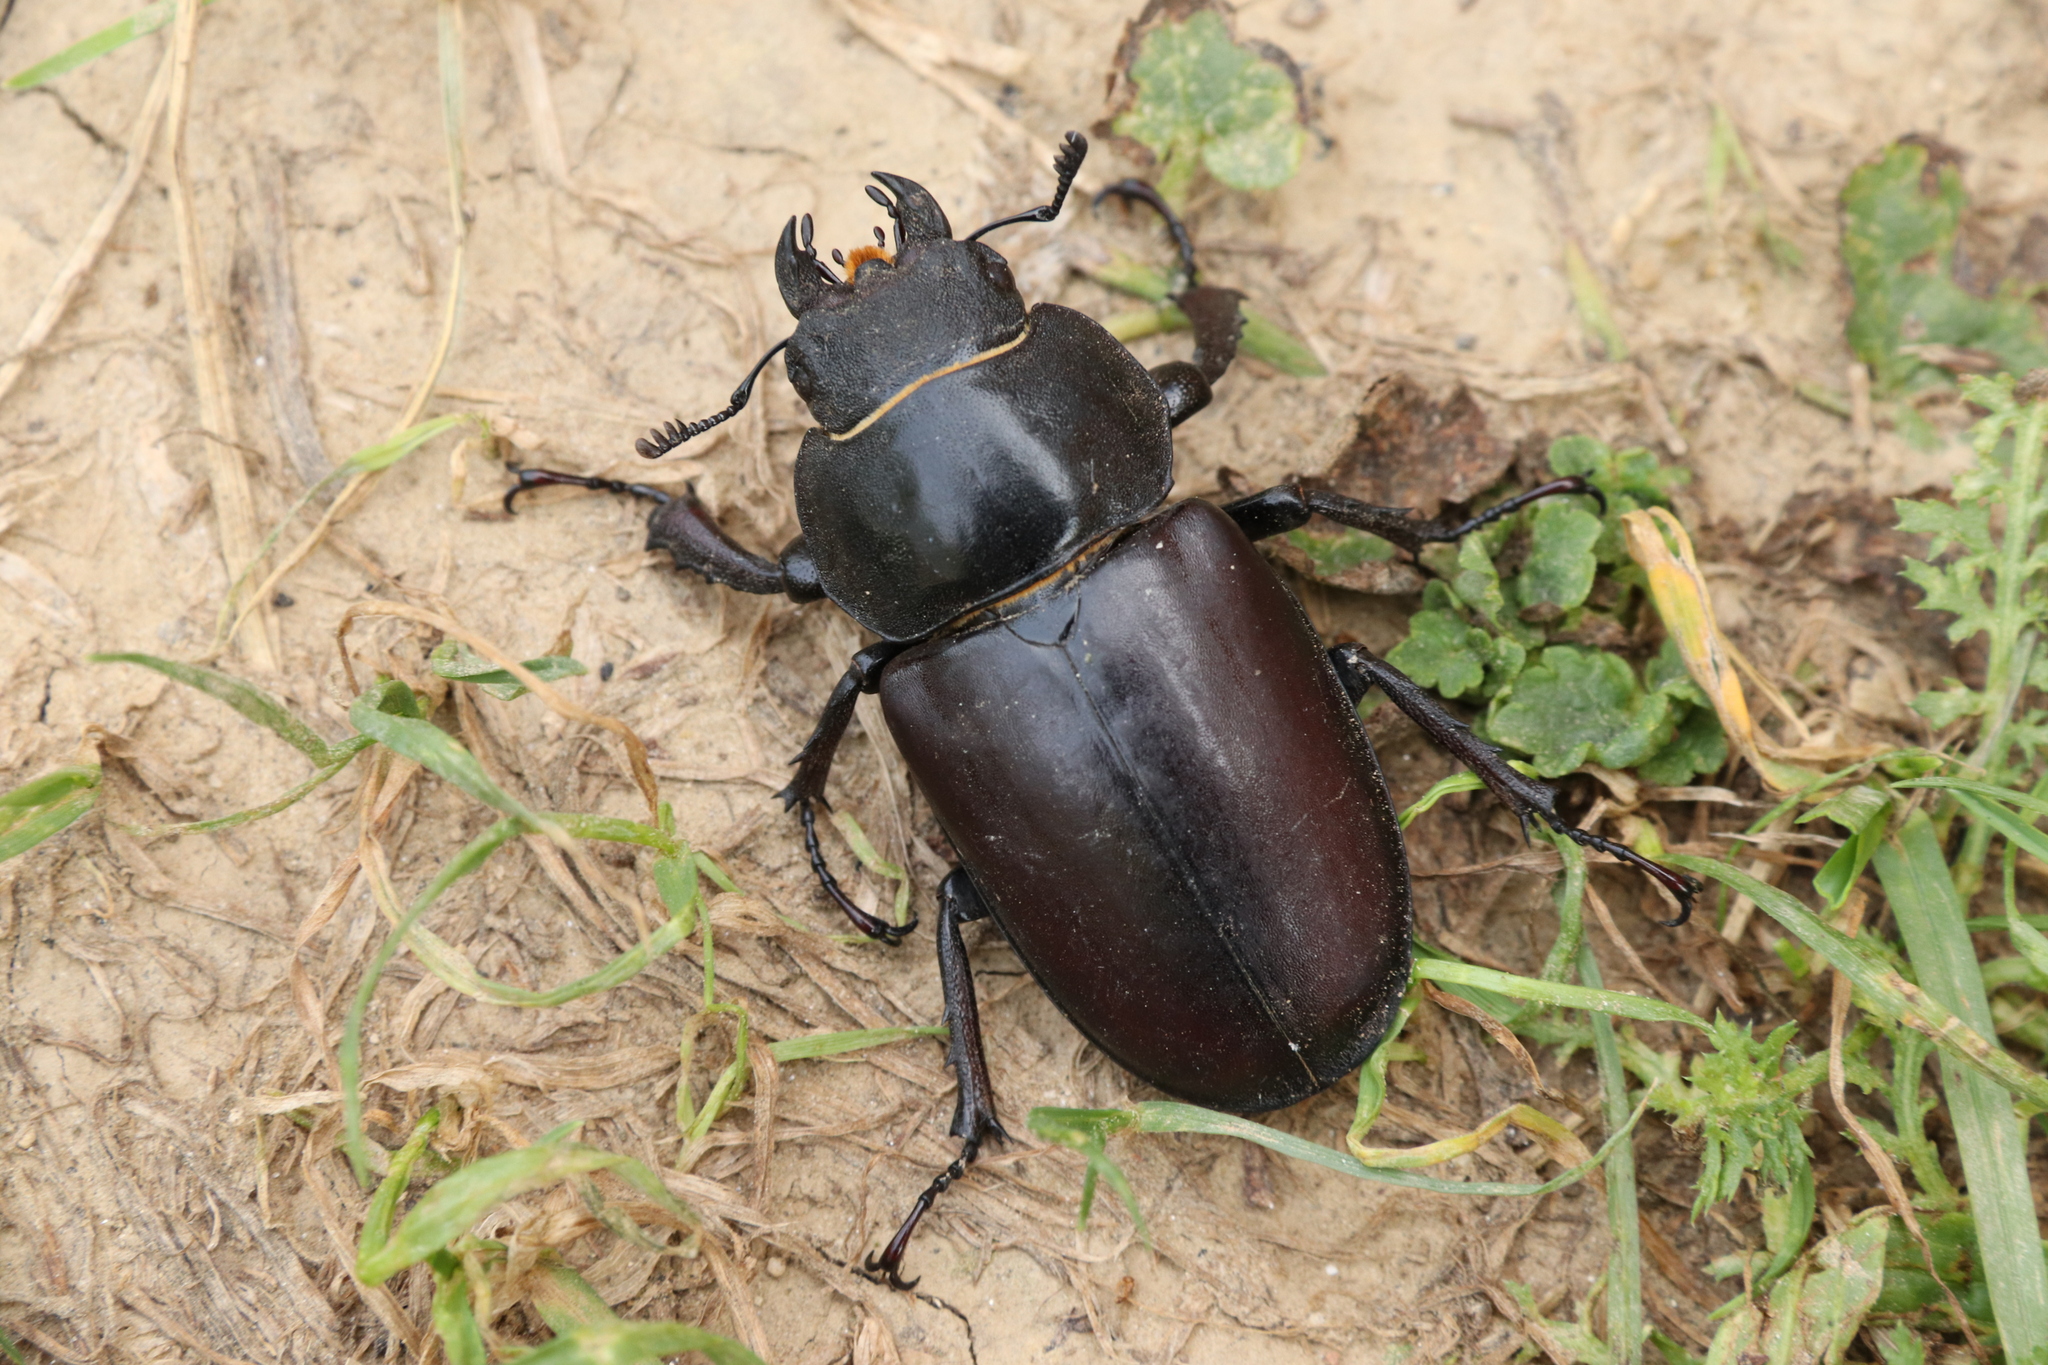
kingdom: Animalia
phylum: Arthropoda
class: Insecta
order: Coleoptera
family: Lucanidae
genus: Lucanus
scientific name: Lucanus cervus
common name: Stag beetle
